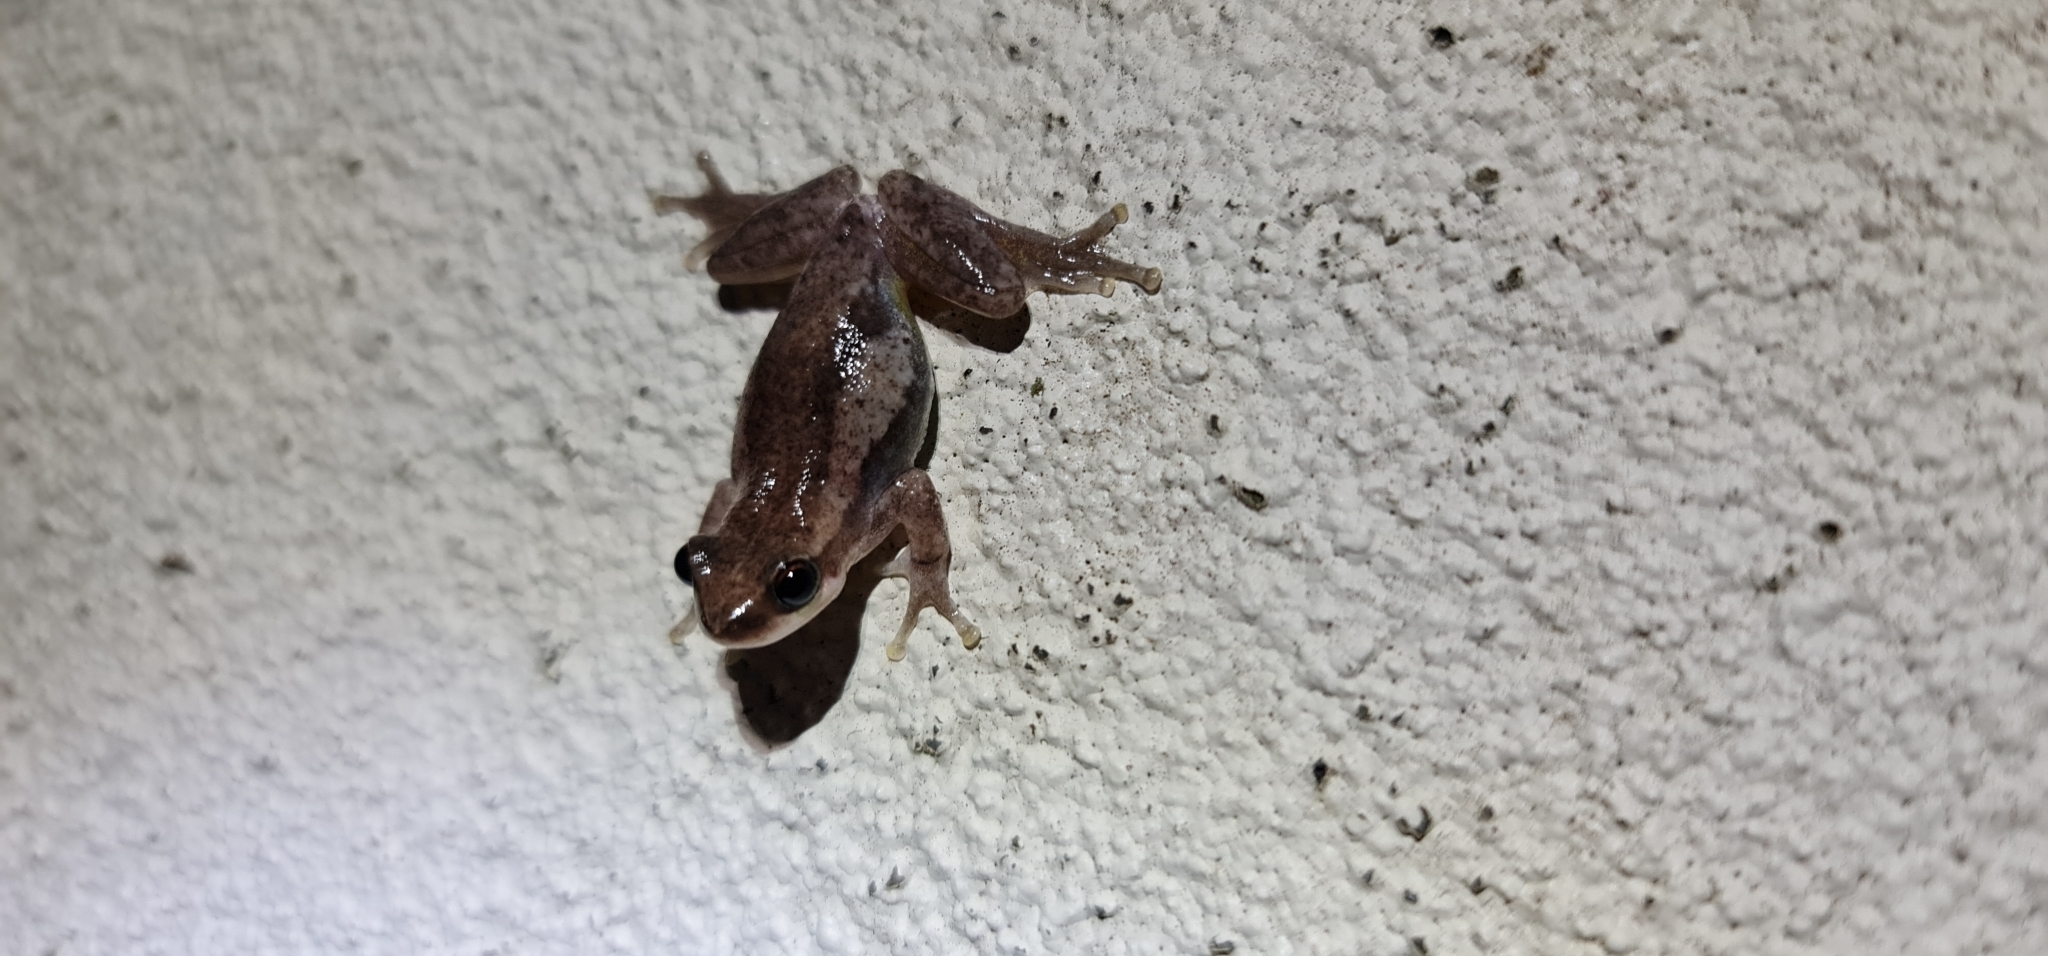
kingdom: Animalia
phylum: Chordata
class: Amphibia
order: Anura
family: Pelodryadidae
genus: Litoria
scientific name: Litoria rubella
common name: Desert tree frog
